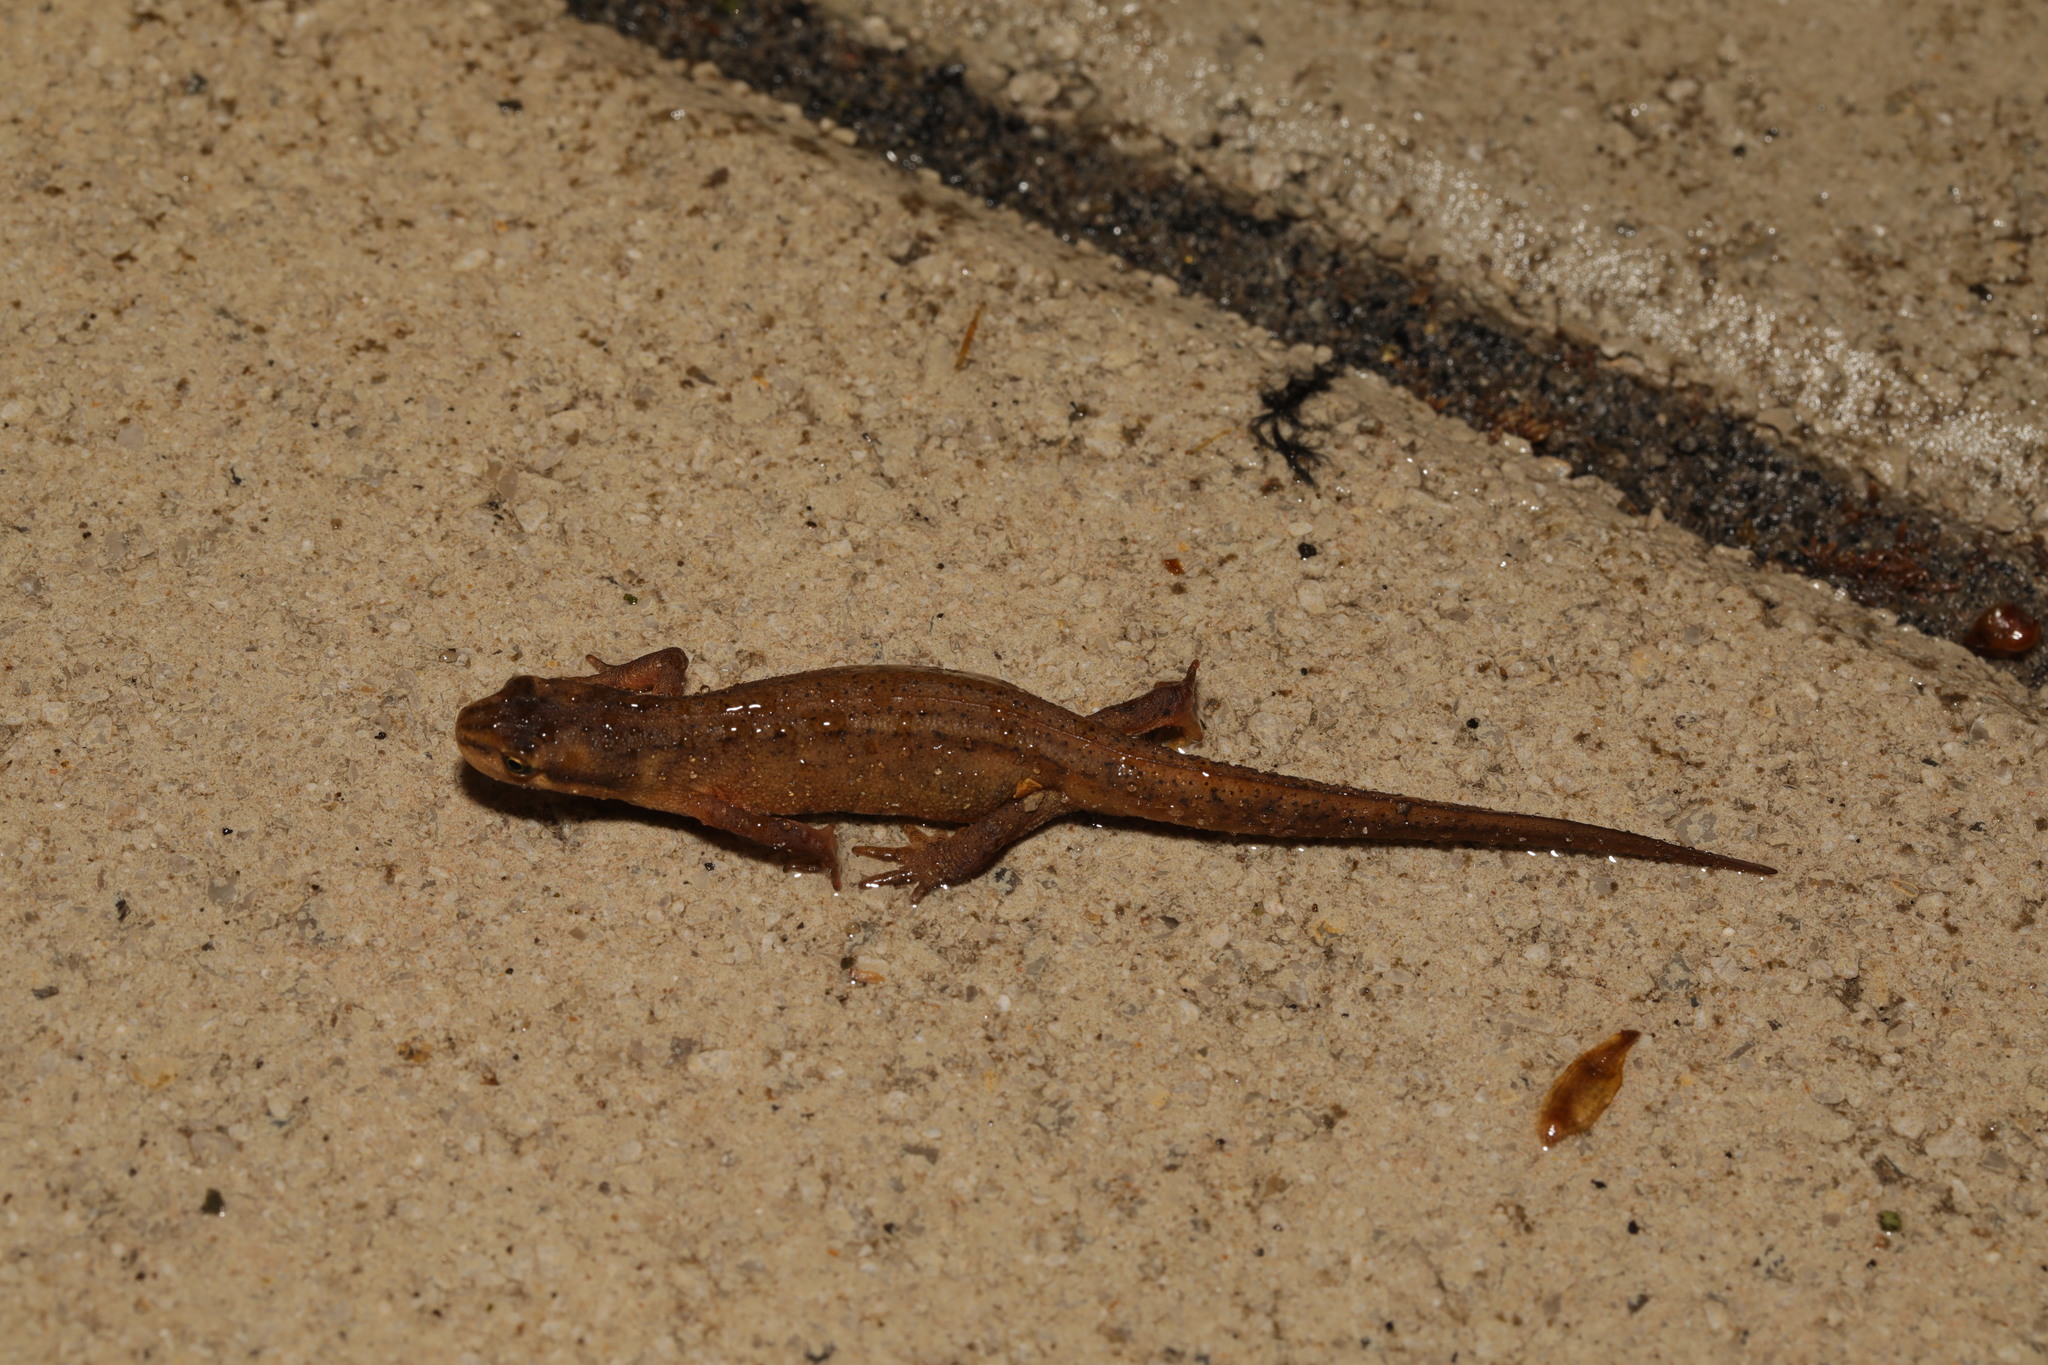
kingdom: Animalia
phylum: Chordata
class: Amphibia
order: Caudata
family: Salamandridae
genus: Lissotriton
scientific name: Lissotriton vulgaris
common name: Smooth newt
